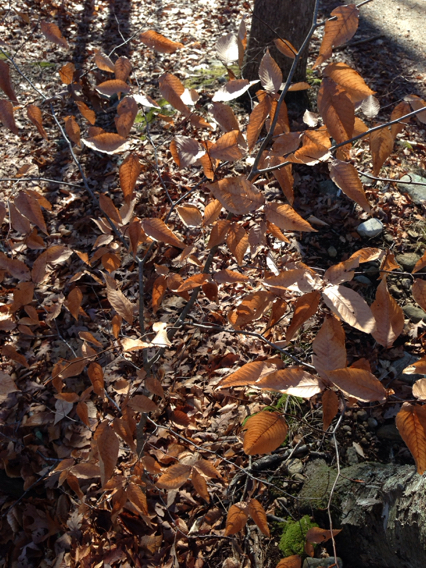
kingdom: Plantae
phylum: Tracheophyta
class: Magnoliopsida
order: Fagales
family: Fagaceae
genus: Fagus
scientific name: Fagus grandifolia
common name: American beech
